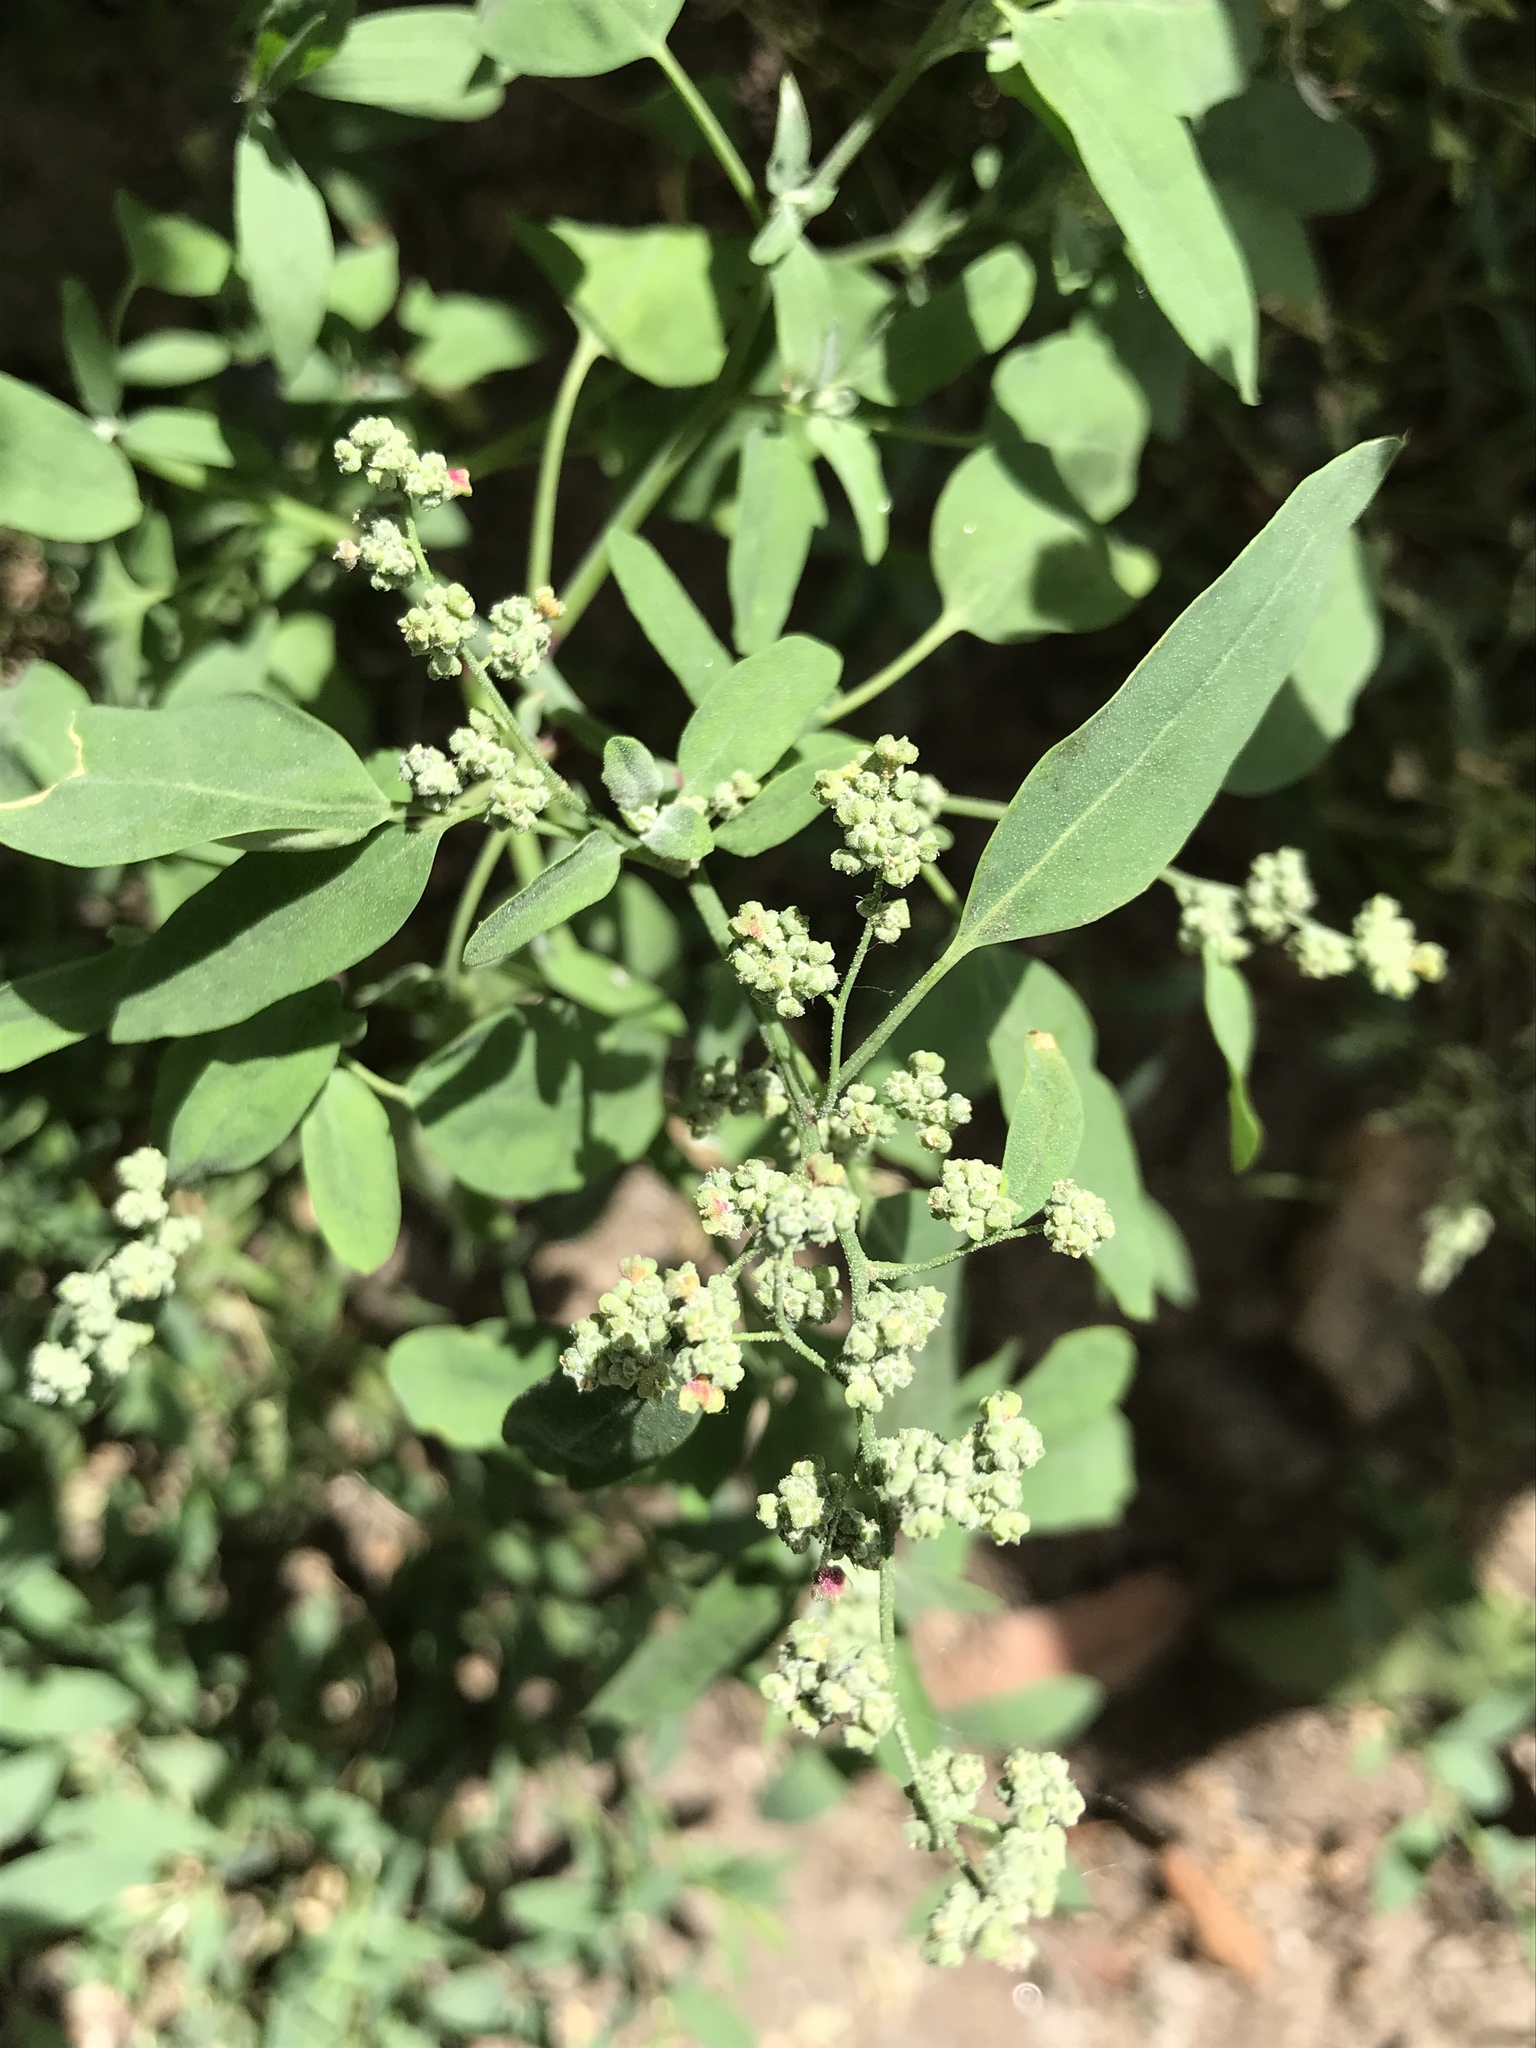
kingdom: Plantae
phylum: Tracheophyta
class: Magnoliopsida
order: Caryophyllales
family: Amaranthaceae
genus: Chenopodium
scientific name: Chenopodium album
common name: Fat-hen
